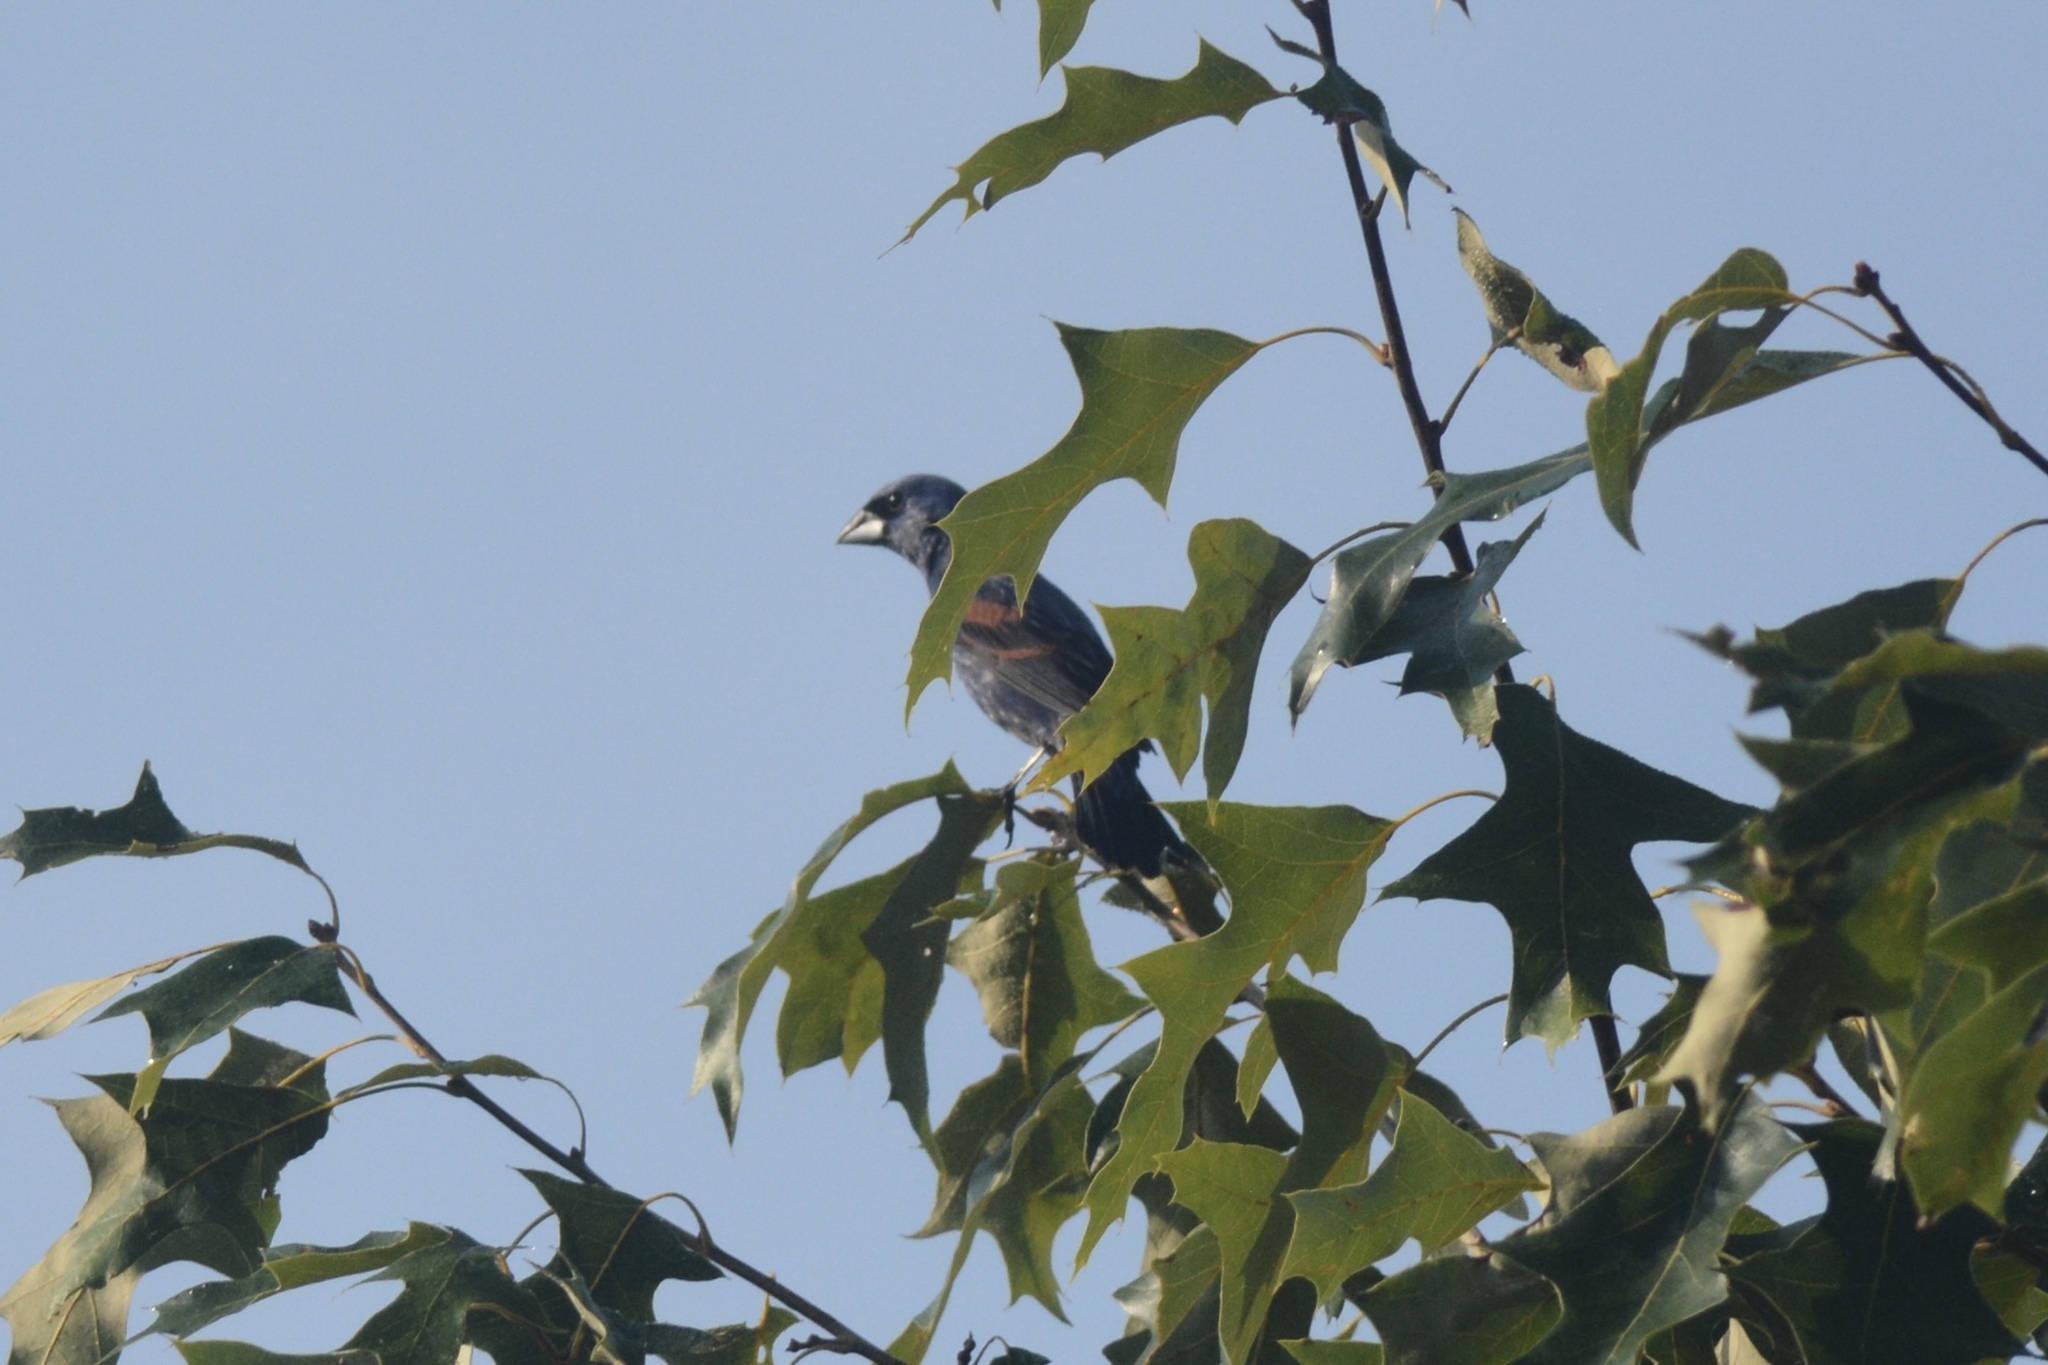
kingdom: Animalia
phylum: Chordata
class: Aves
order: Passeriformes
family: Cardinalidae
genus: Passerina
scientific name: Passerina caerulea
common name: Blue grosbeak
